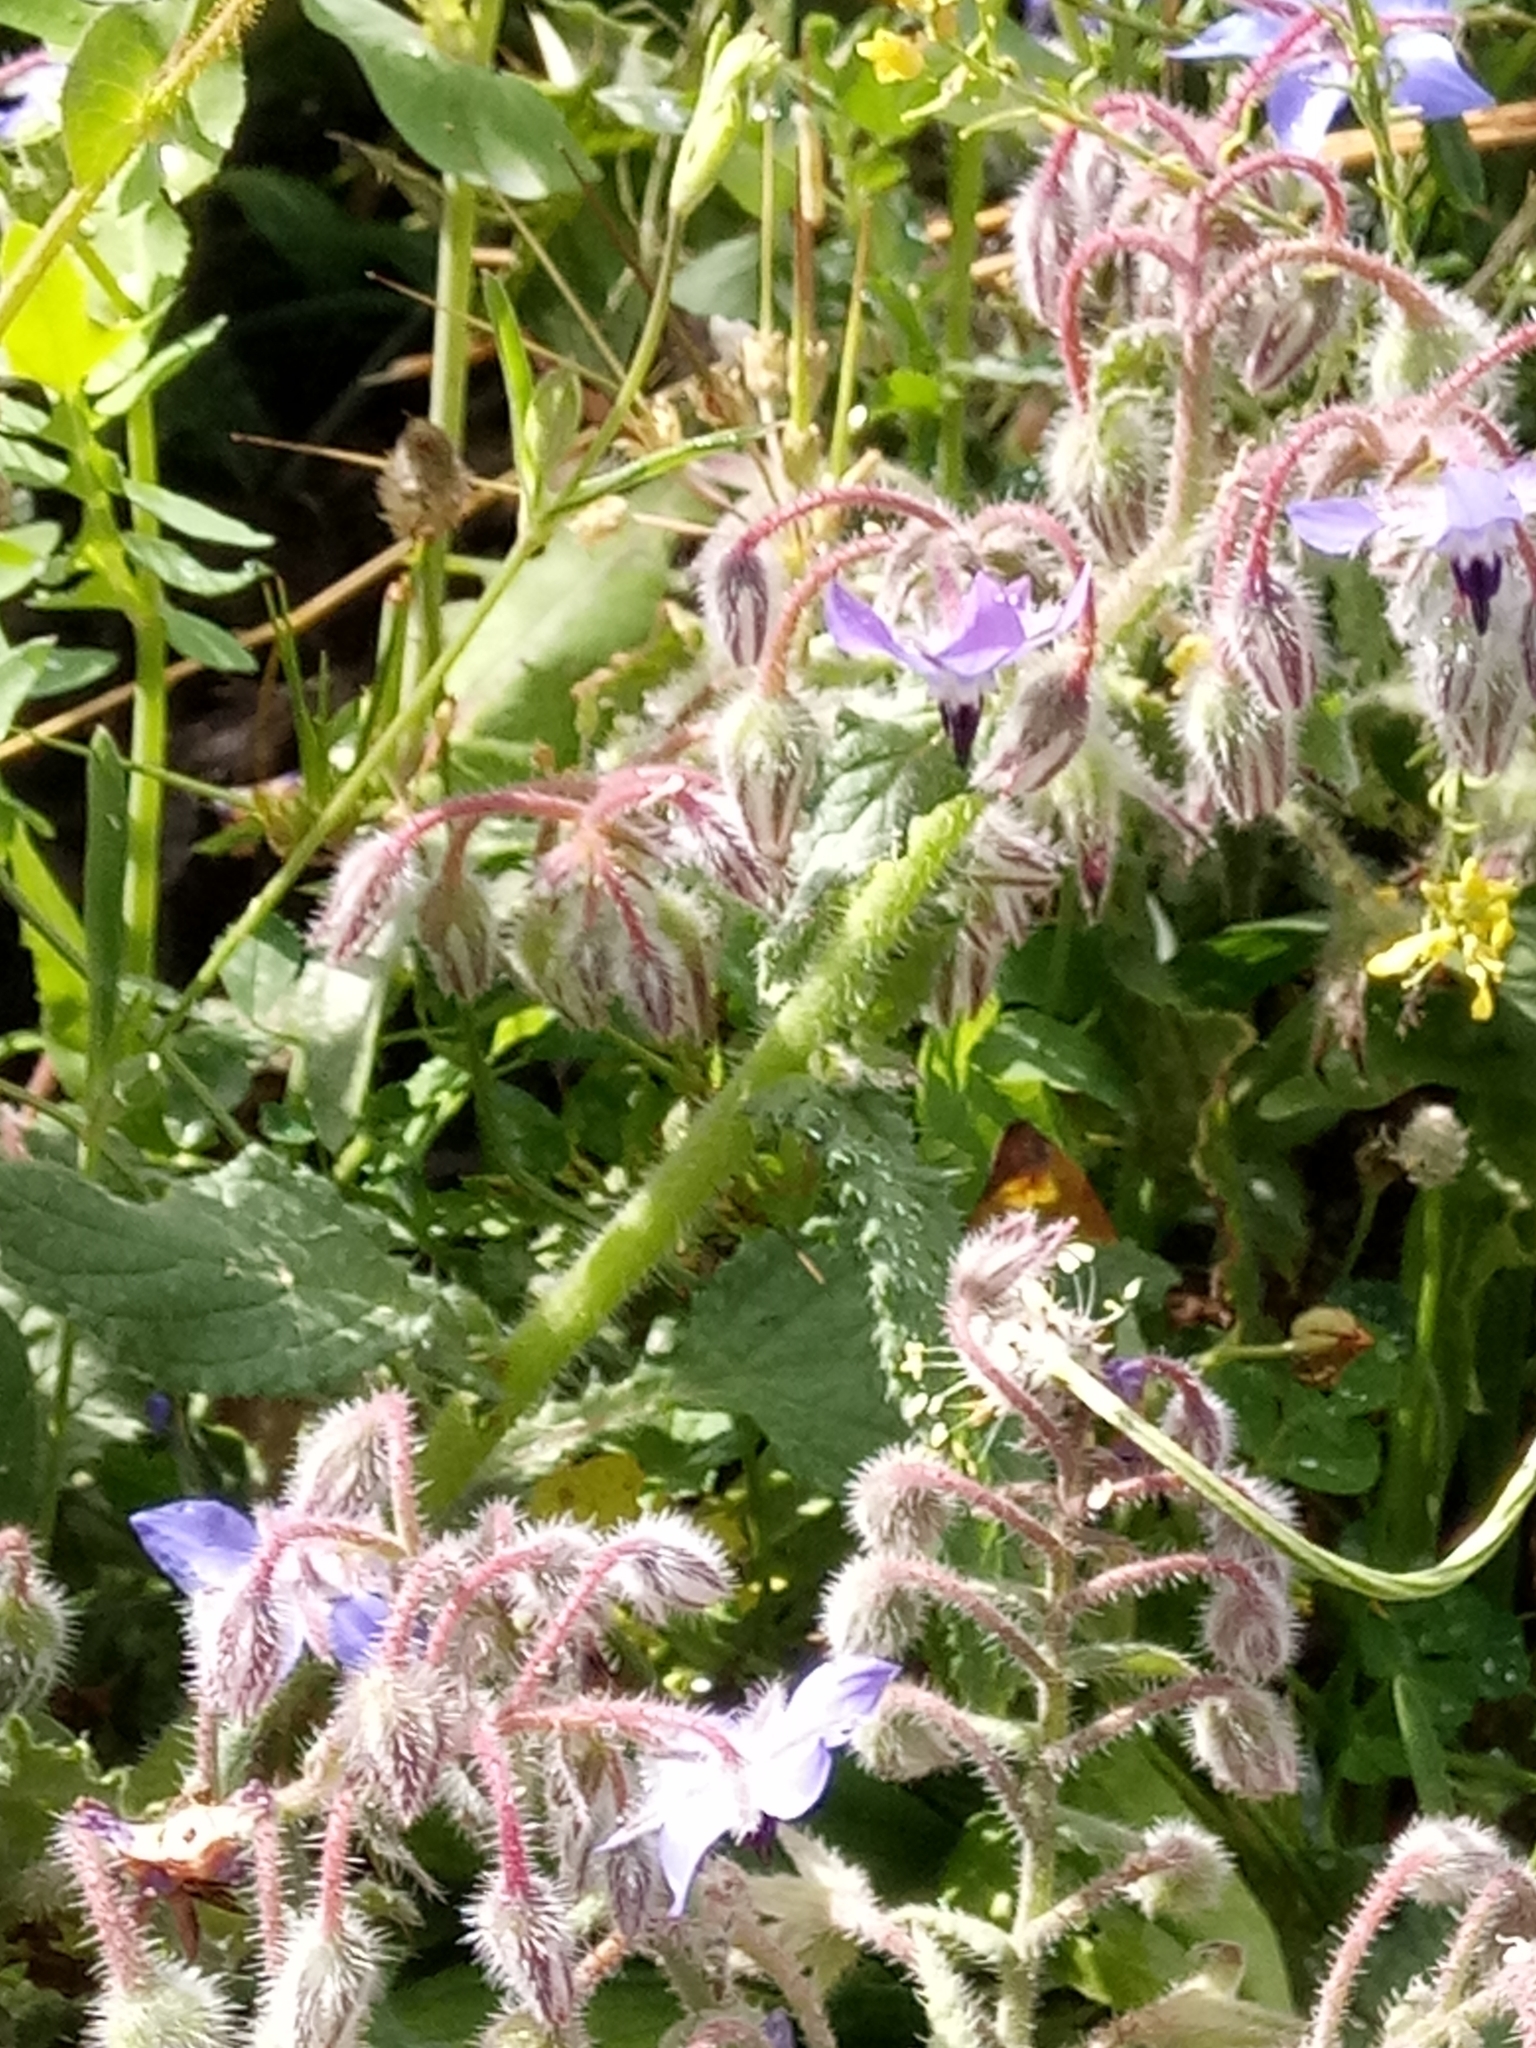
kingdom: Plantae
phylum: Tracheophyta
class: Magnoliopsida
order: Boraginales
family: Boraginaceae
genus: Borago
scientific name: Borago officinalis
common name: Borage
